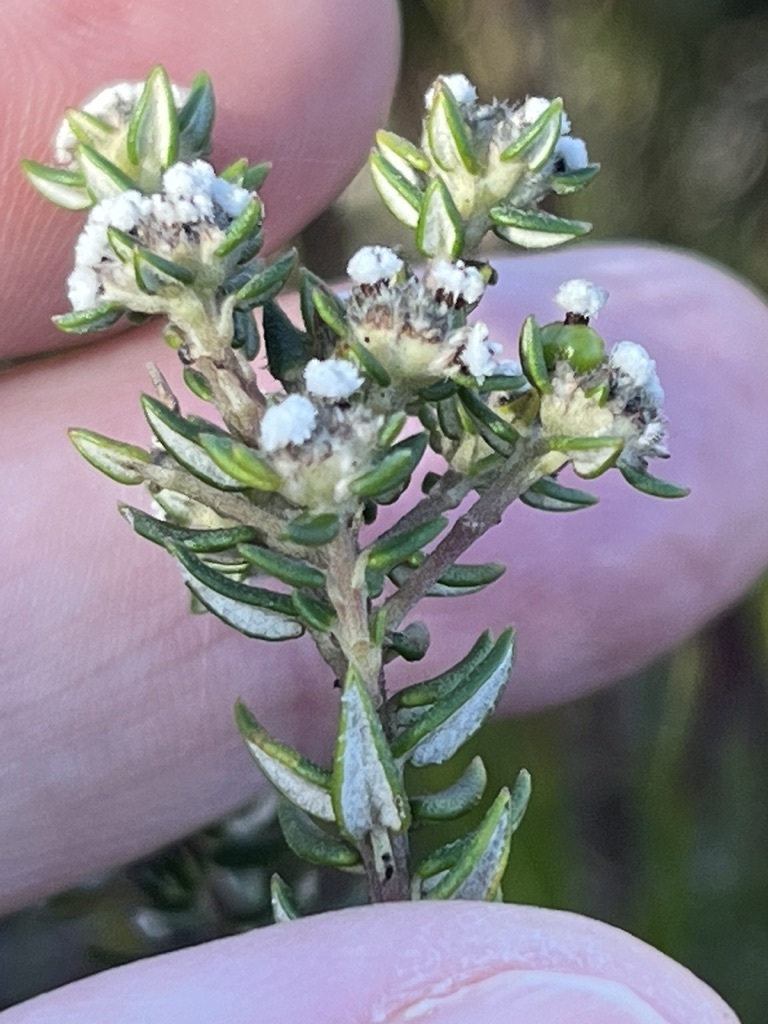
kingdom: Plantae
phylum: Tracheophyta
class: Magnoliopsida
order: Rosales
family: Rhamnaceae
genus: Phylica
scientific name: Phylica parviflora
